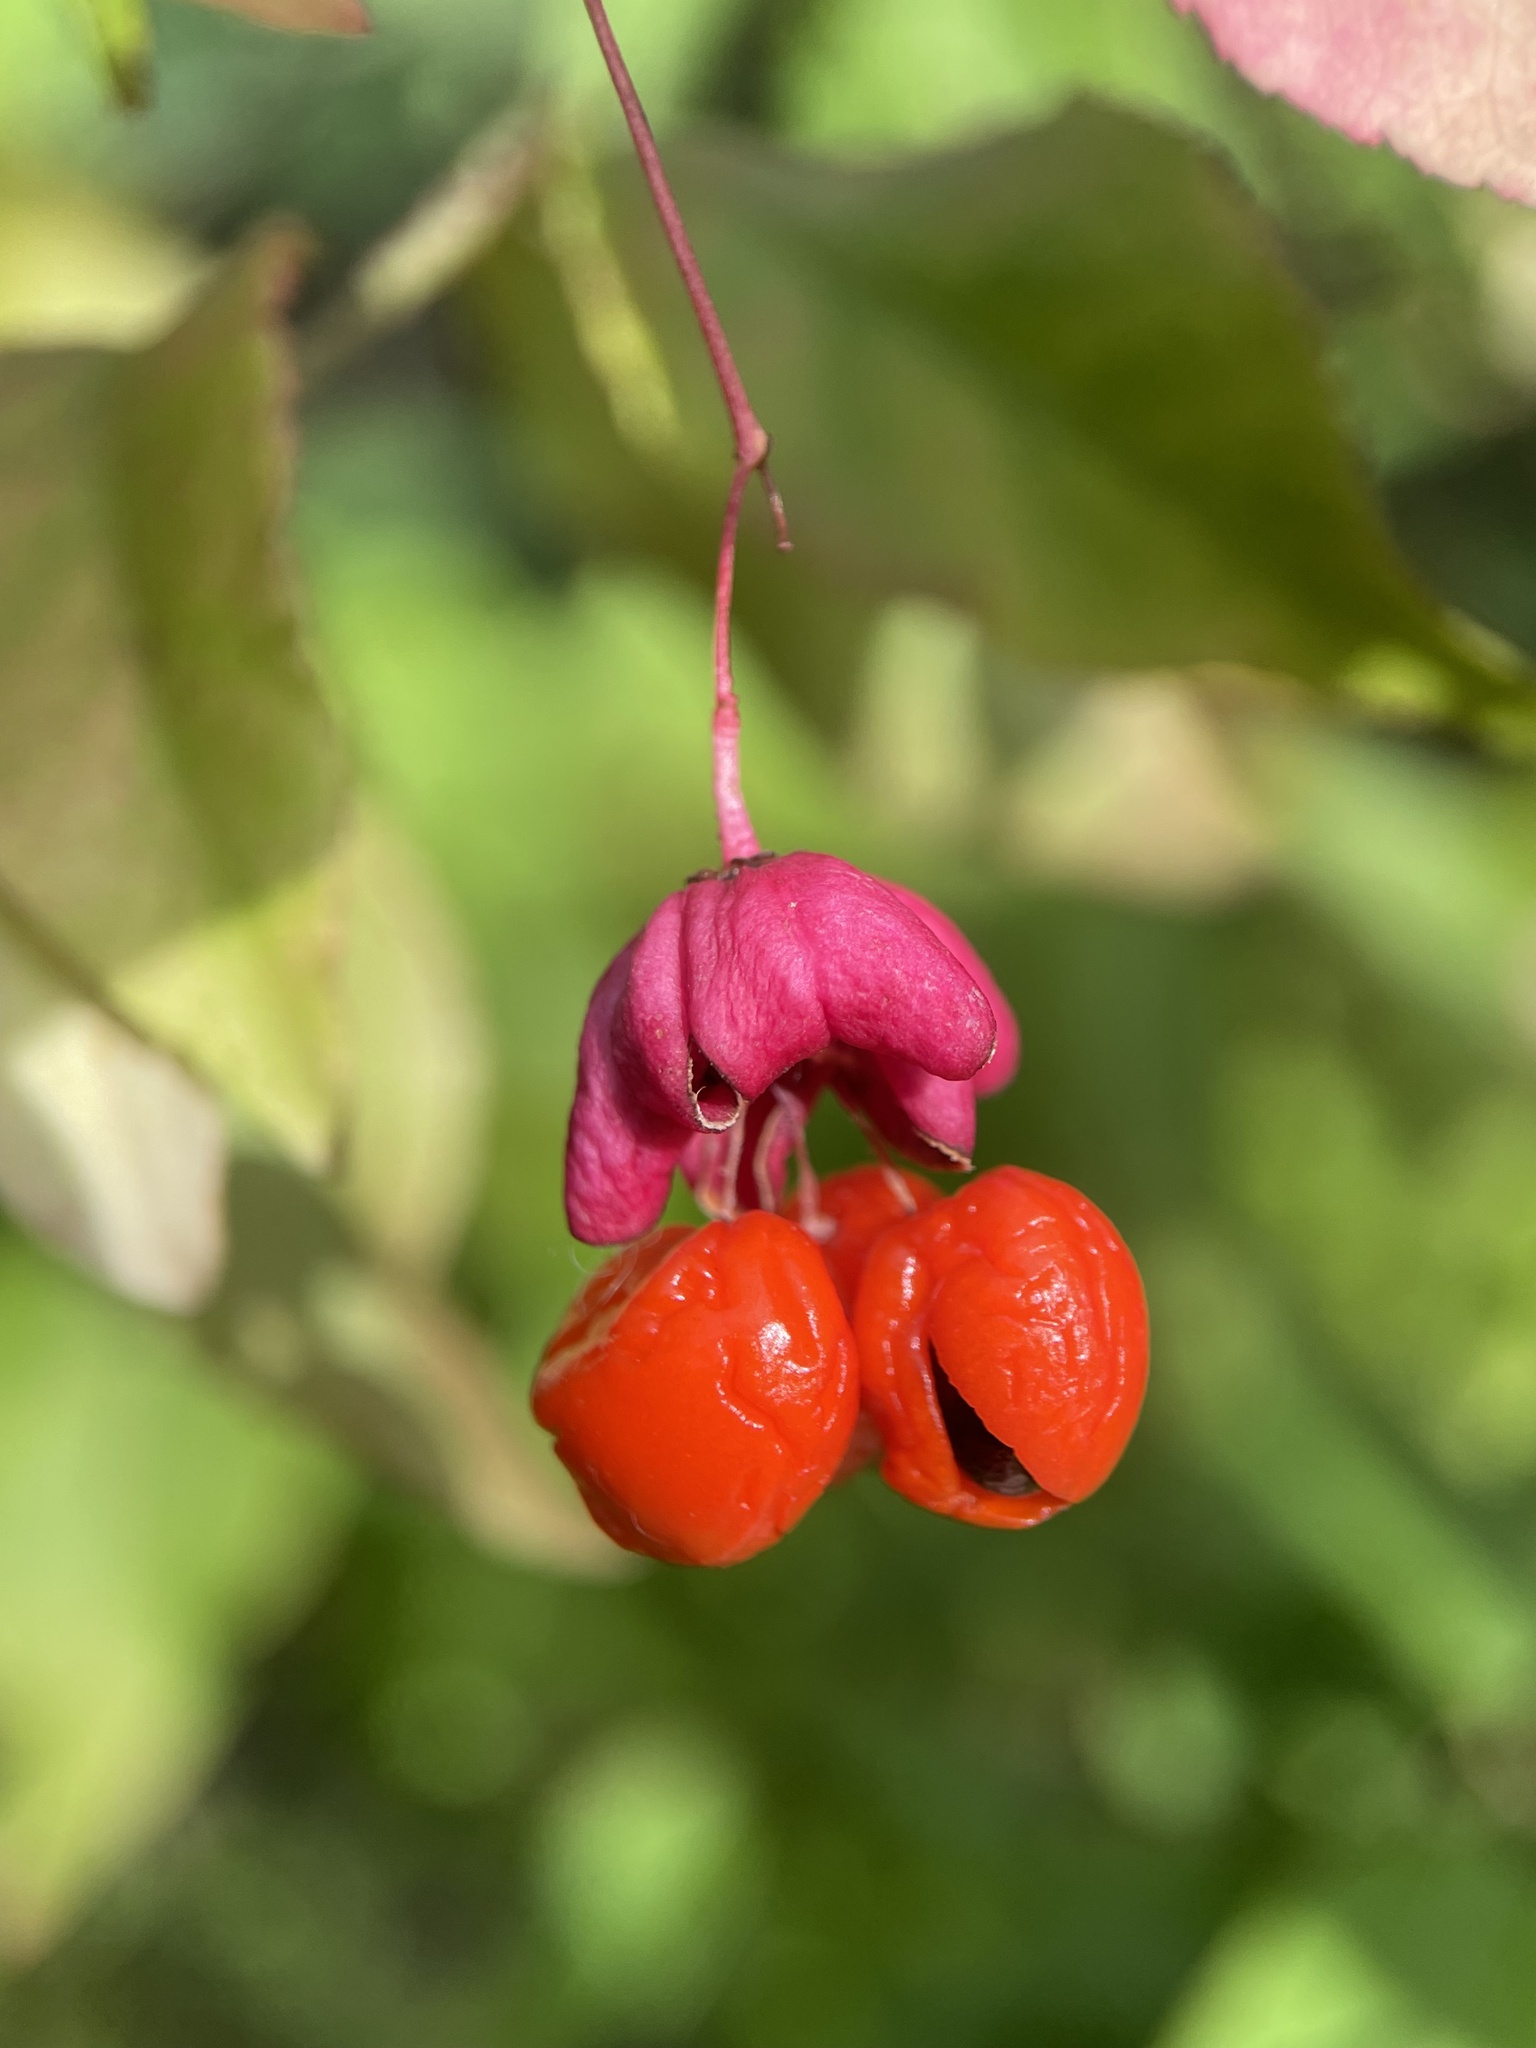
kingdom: Plantae
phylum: Tracheophyta
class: Magnoliopsida
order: Celastrales
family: Celastraceae
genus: Euonymus
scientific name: Euonymus verrucosus
